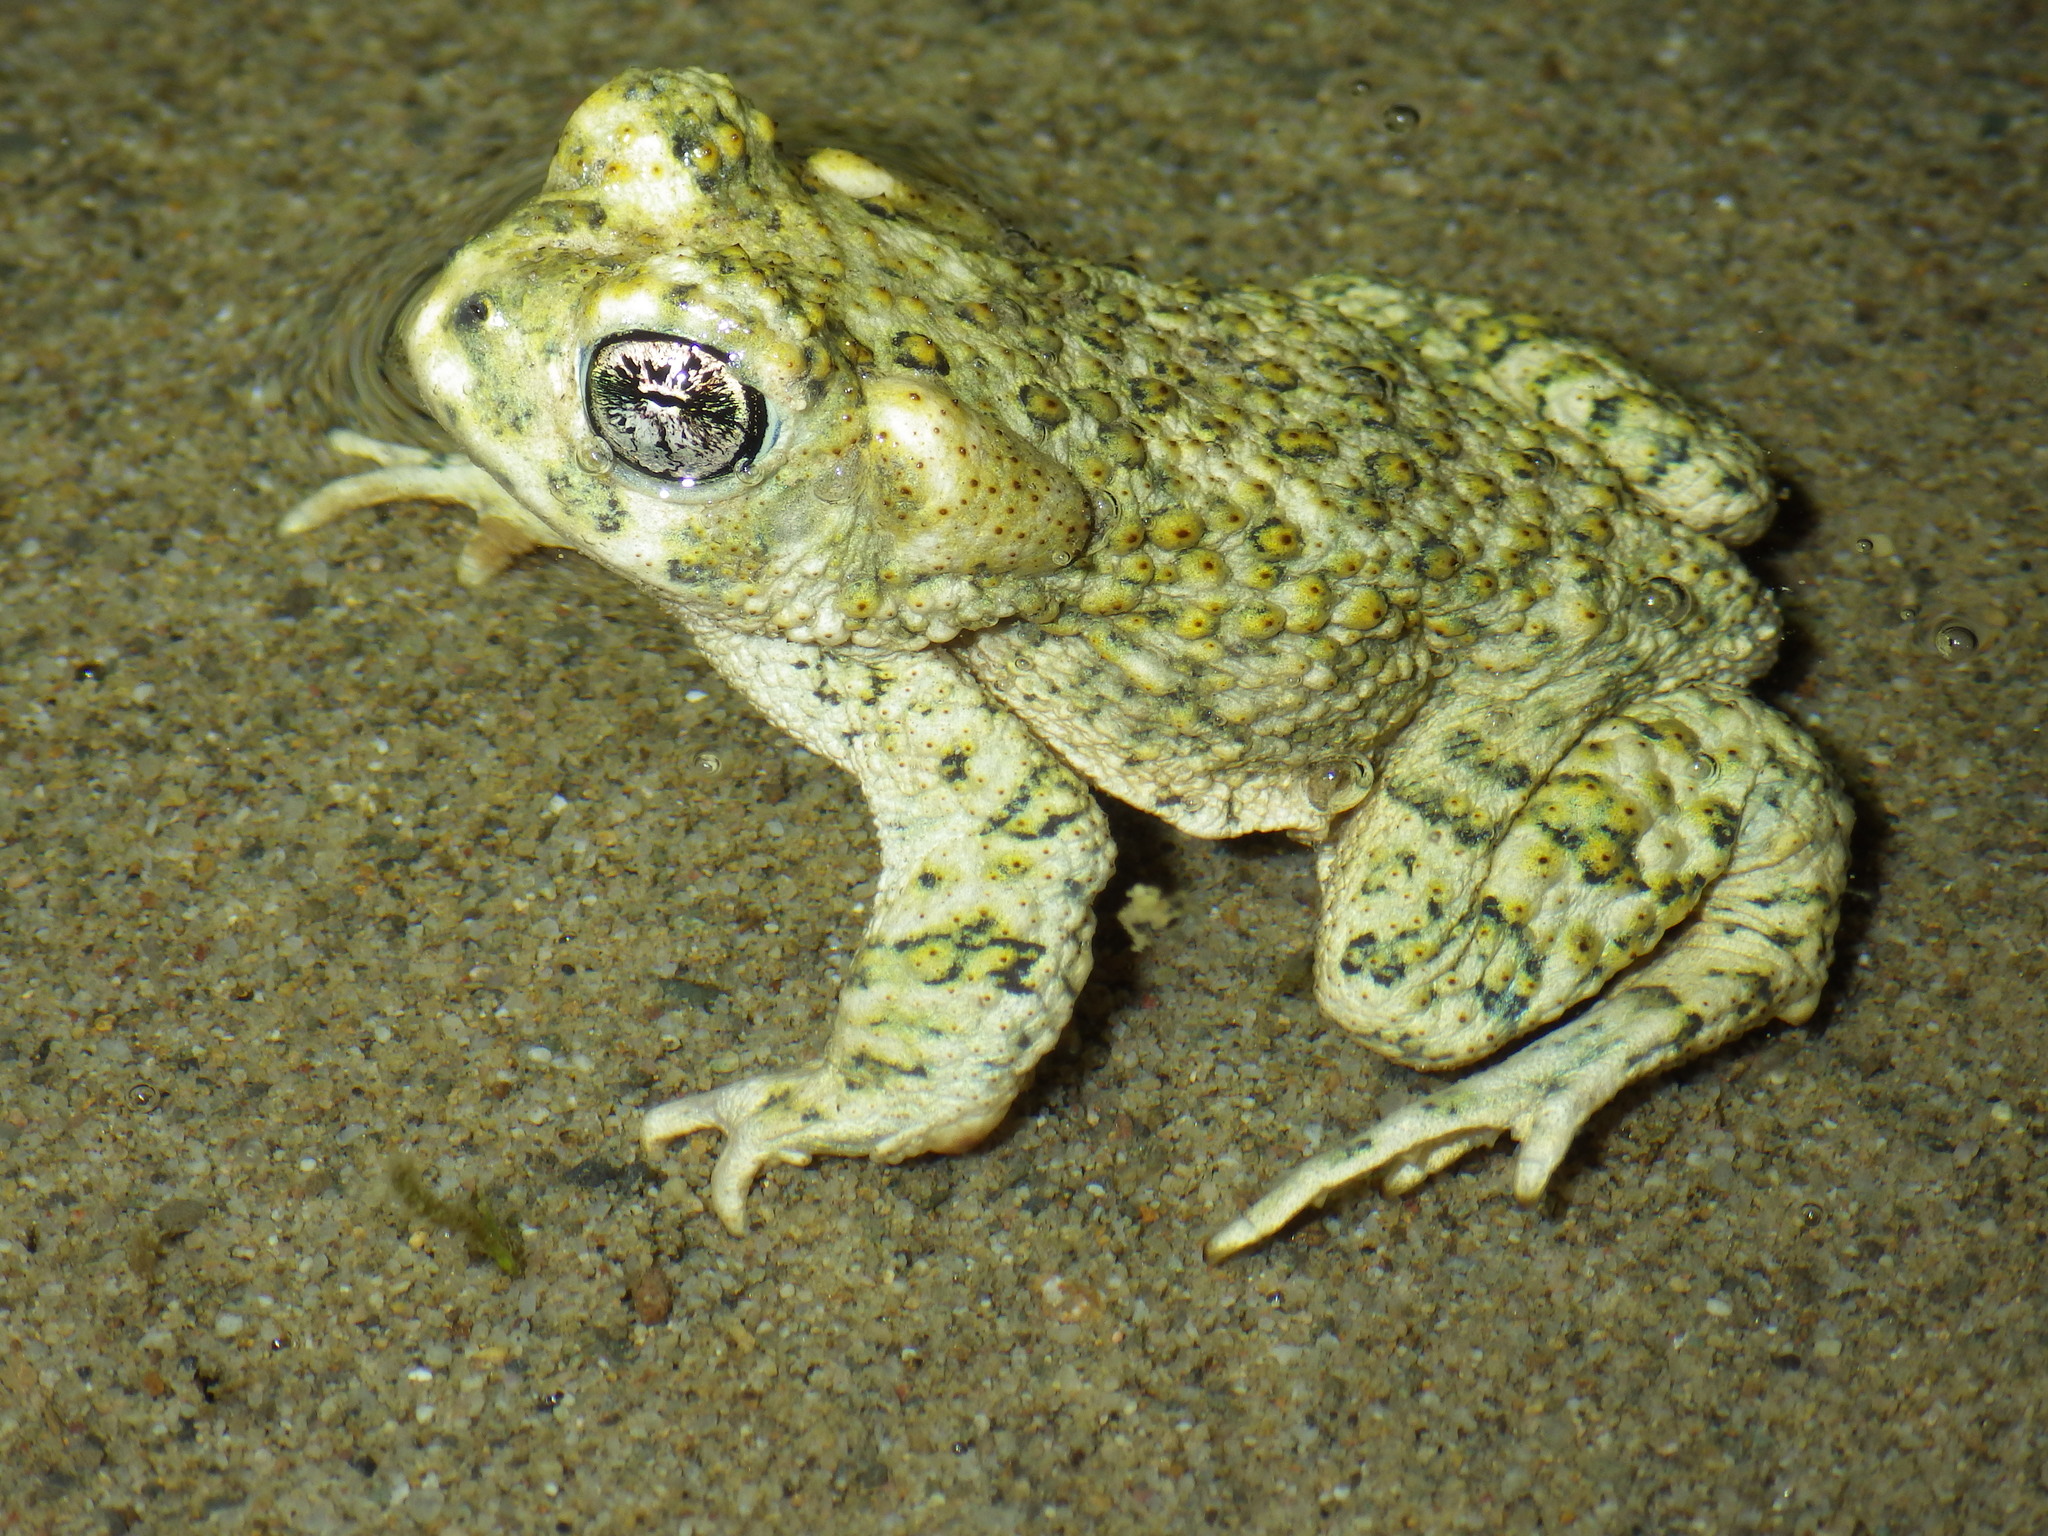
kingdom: Animalia
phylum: Chordata
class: Amphibia
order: Anura
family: Bufonidae
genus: Anaxyrus
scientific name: Anaxyrus californicus
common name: Arroyo toad
